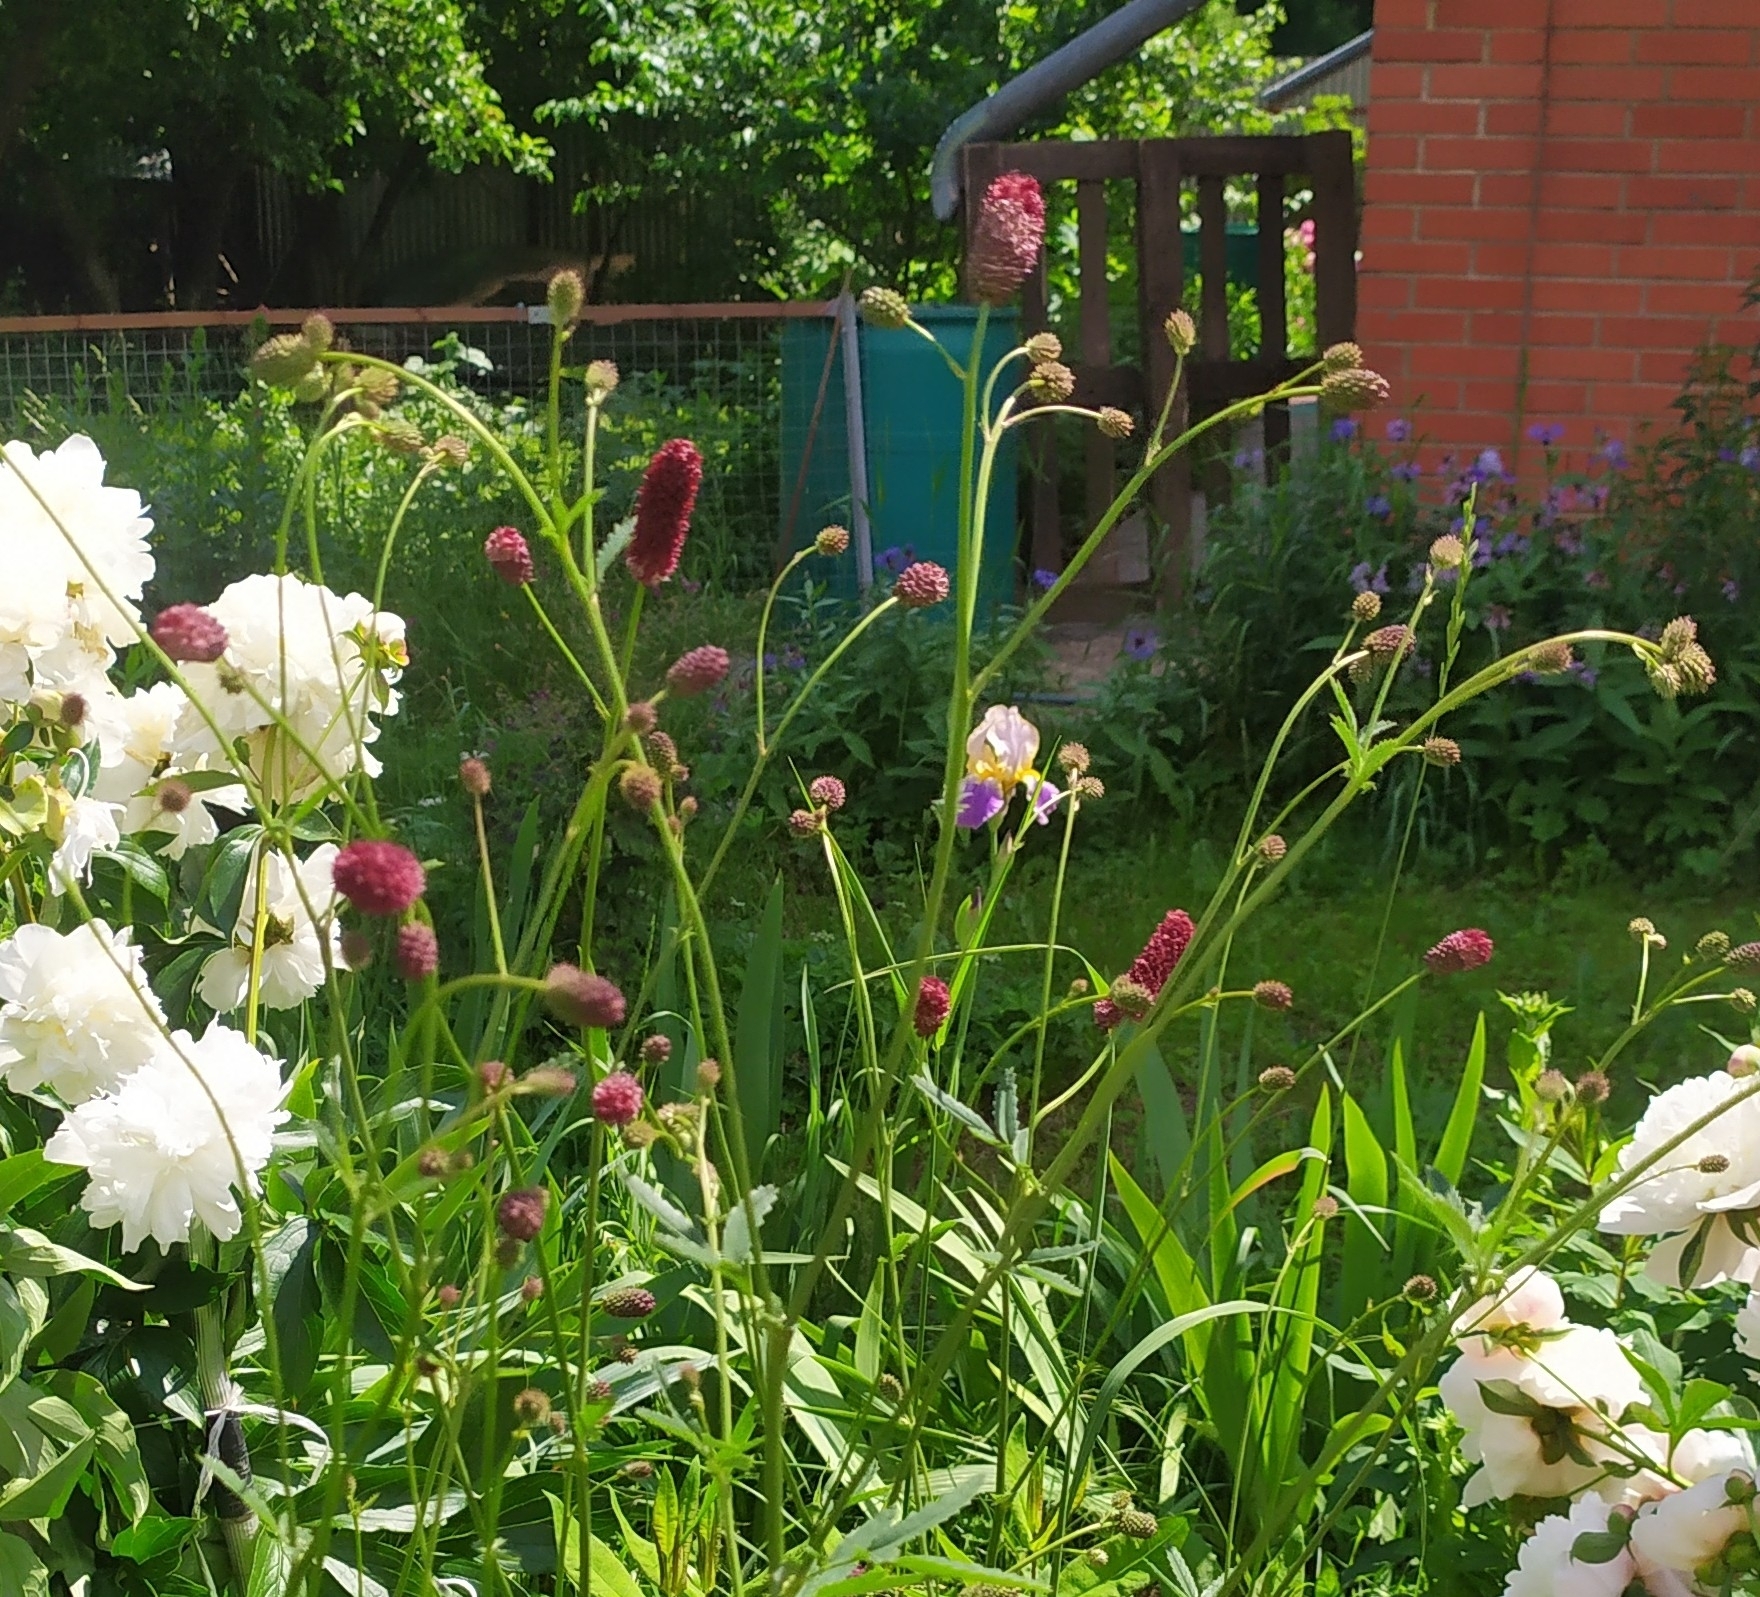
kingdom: Plantae
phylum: Tracheophyta
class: Magnoliopsida
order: Rosales
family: Rosaceae
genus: Sanguisorba
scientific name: Sanguisorba officinalis
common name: Great burnet
